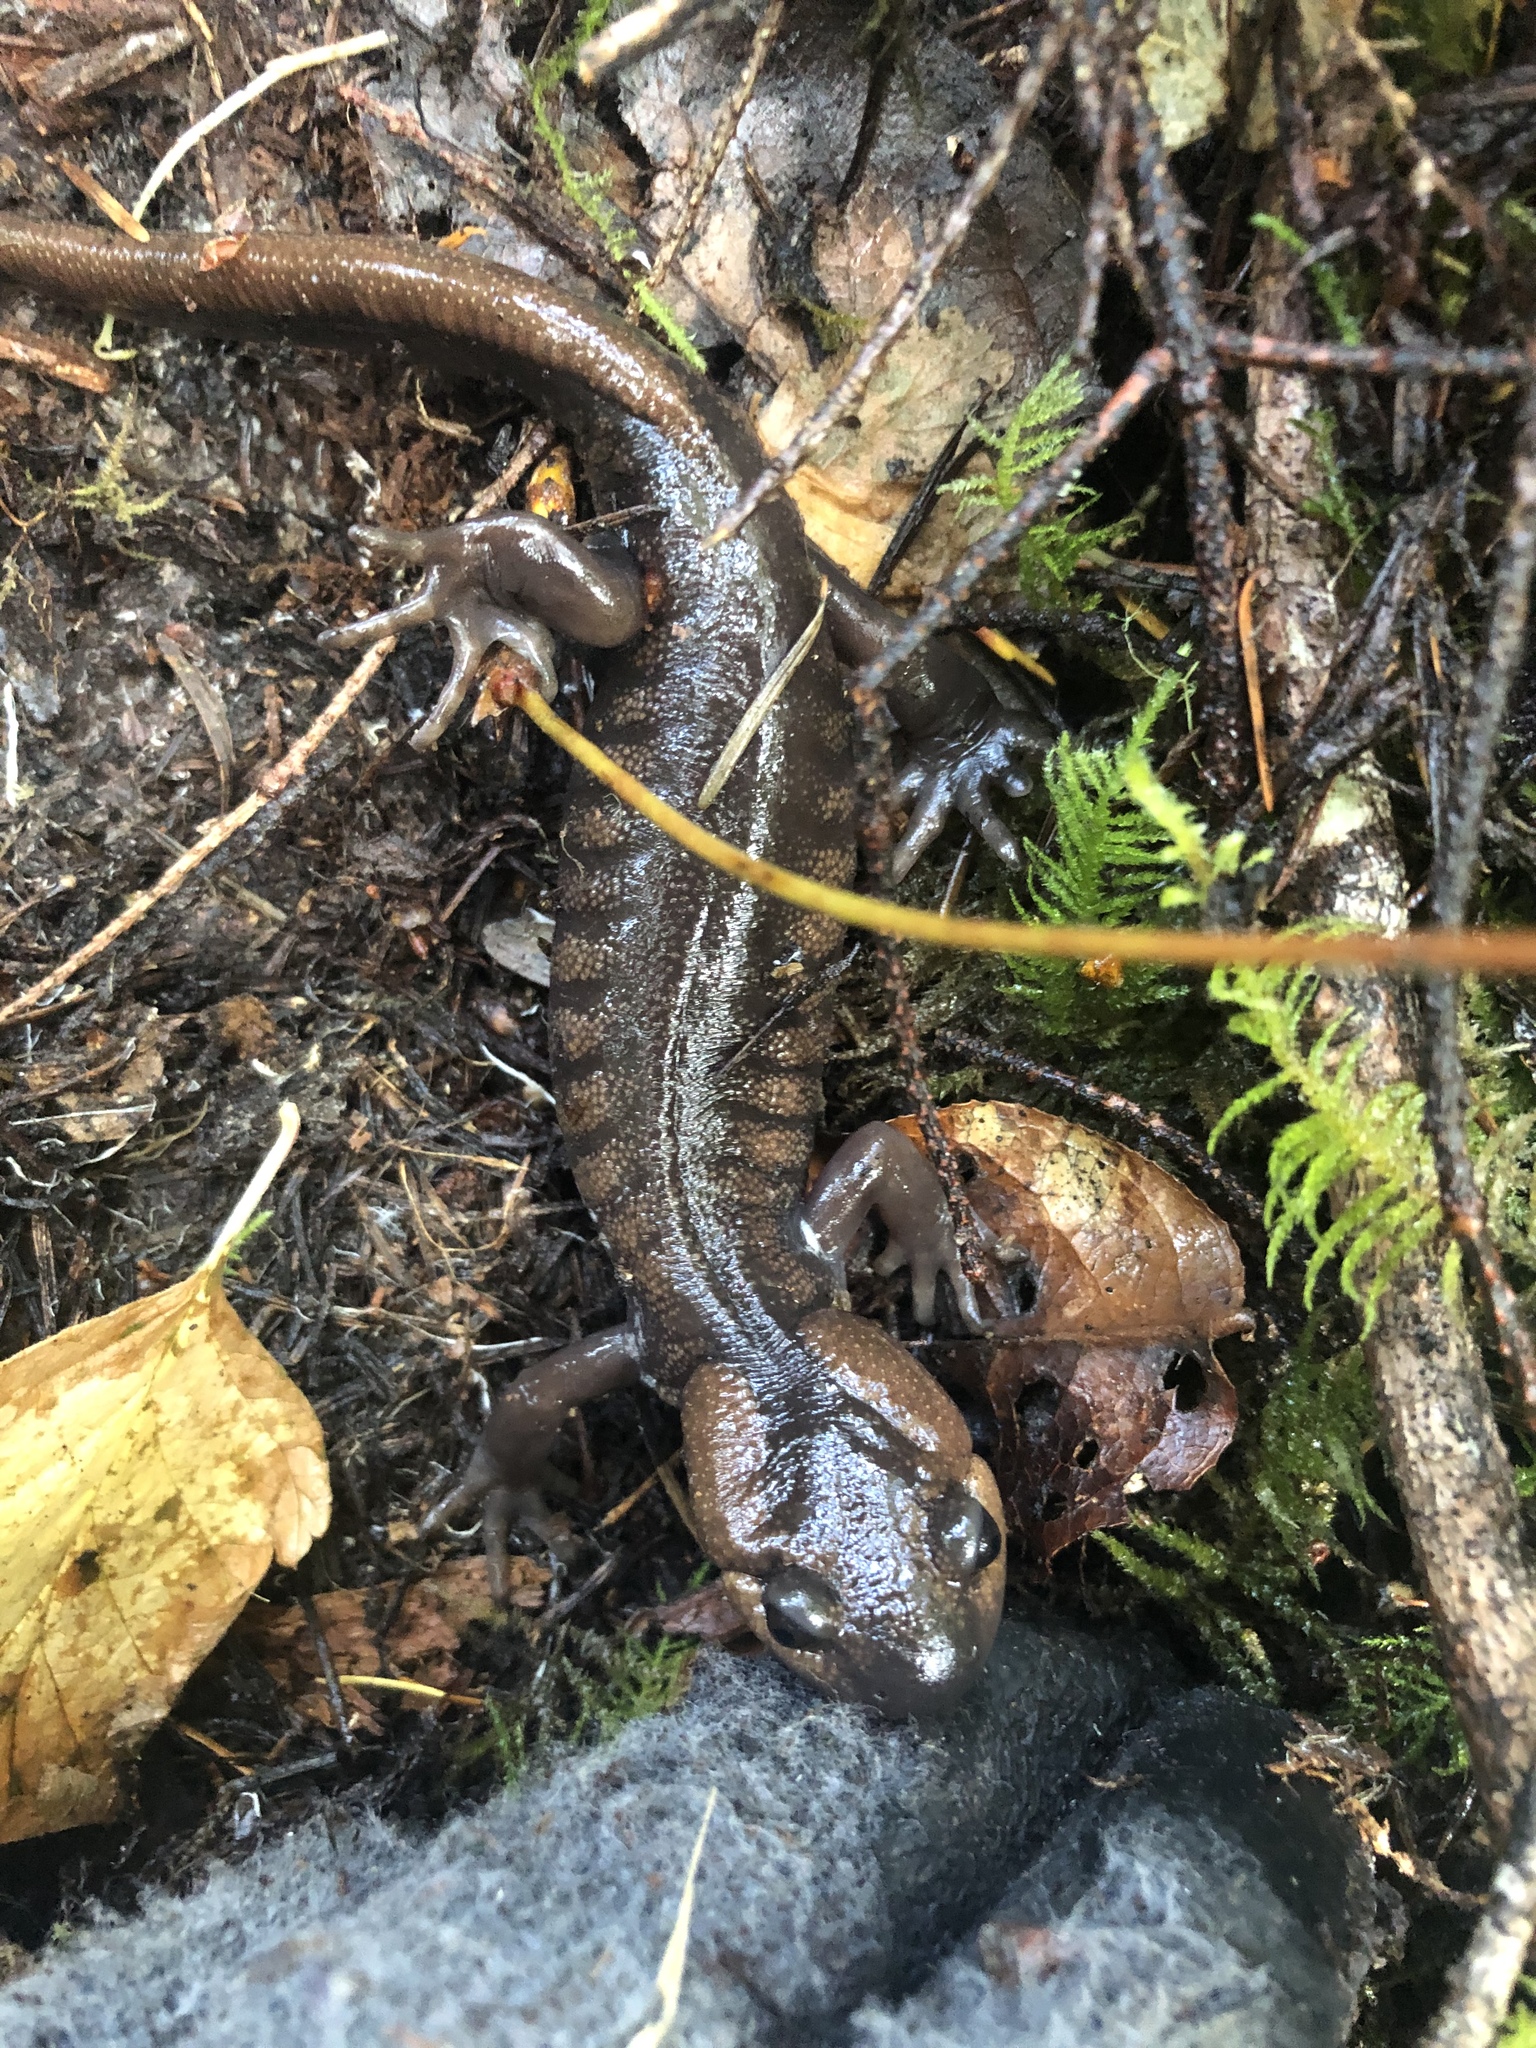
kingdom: Animalia
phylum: Chordata
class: Amphibia
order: Caudata
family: Ambystomatidae
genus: Ambystoma
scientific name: Ambystoma gracile
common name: Northwestern salamander
